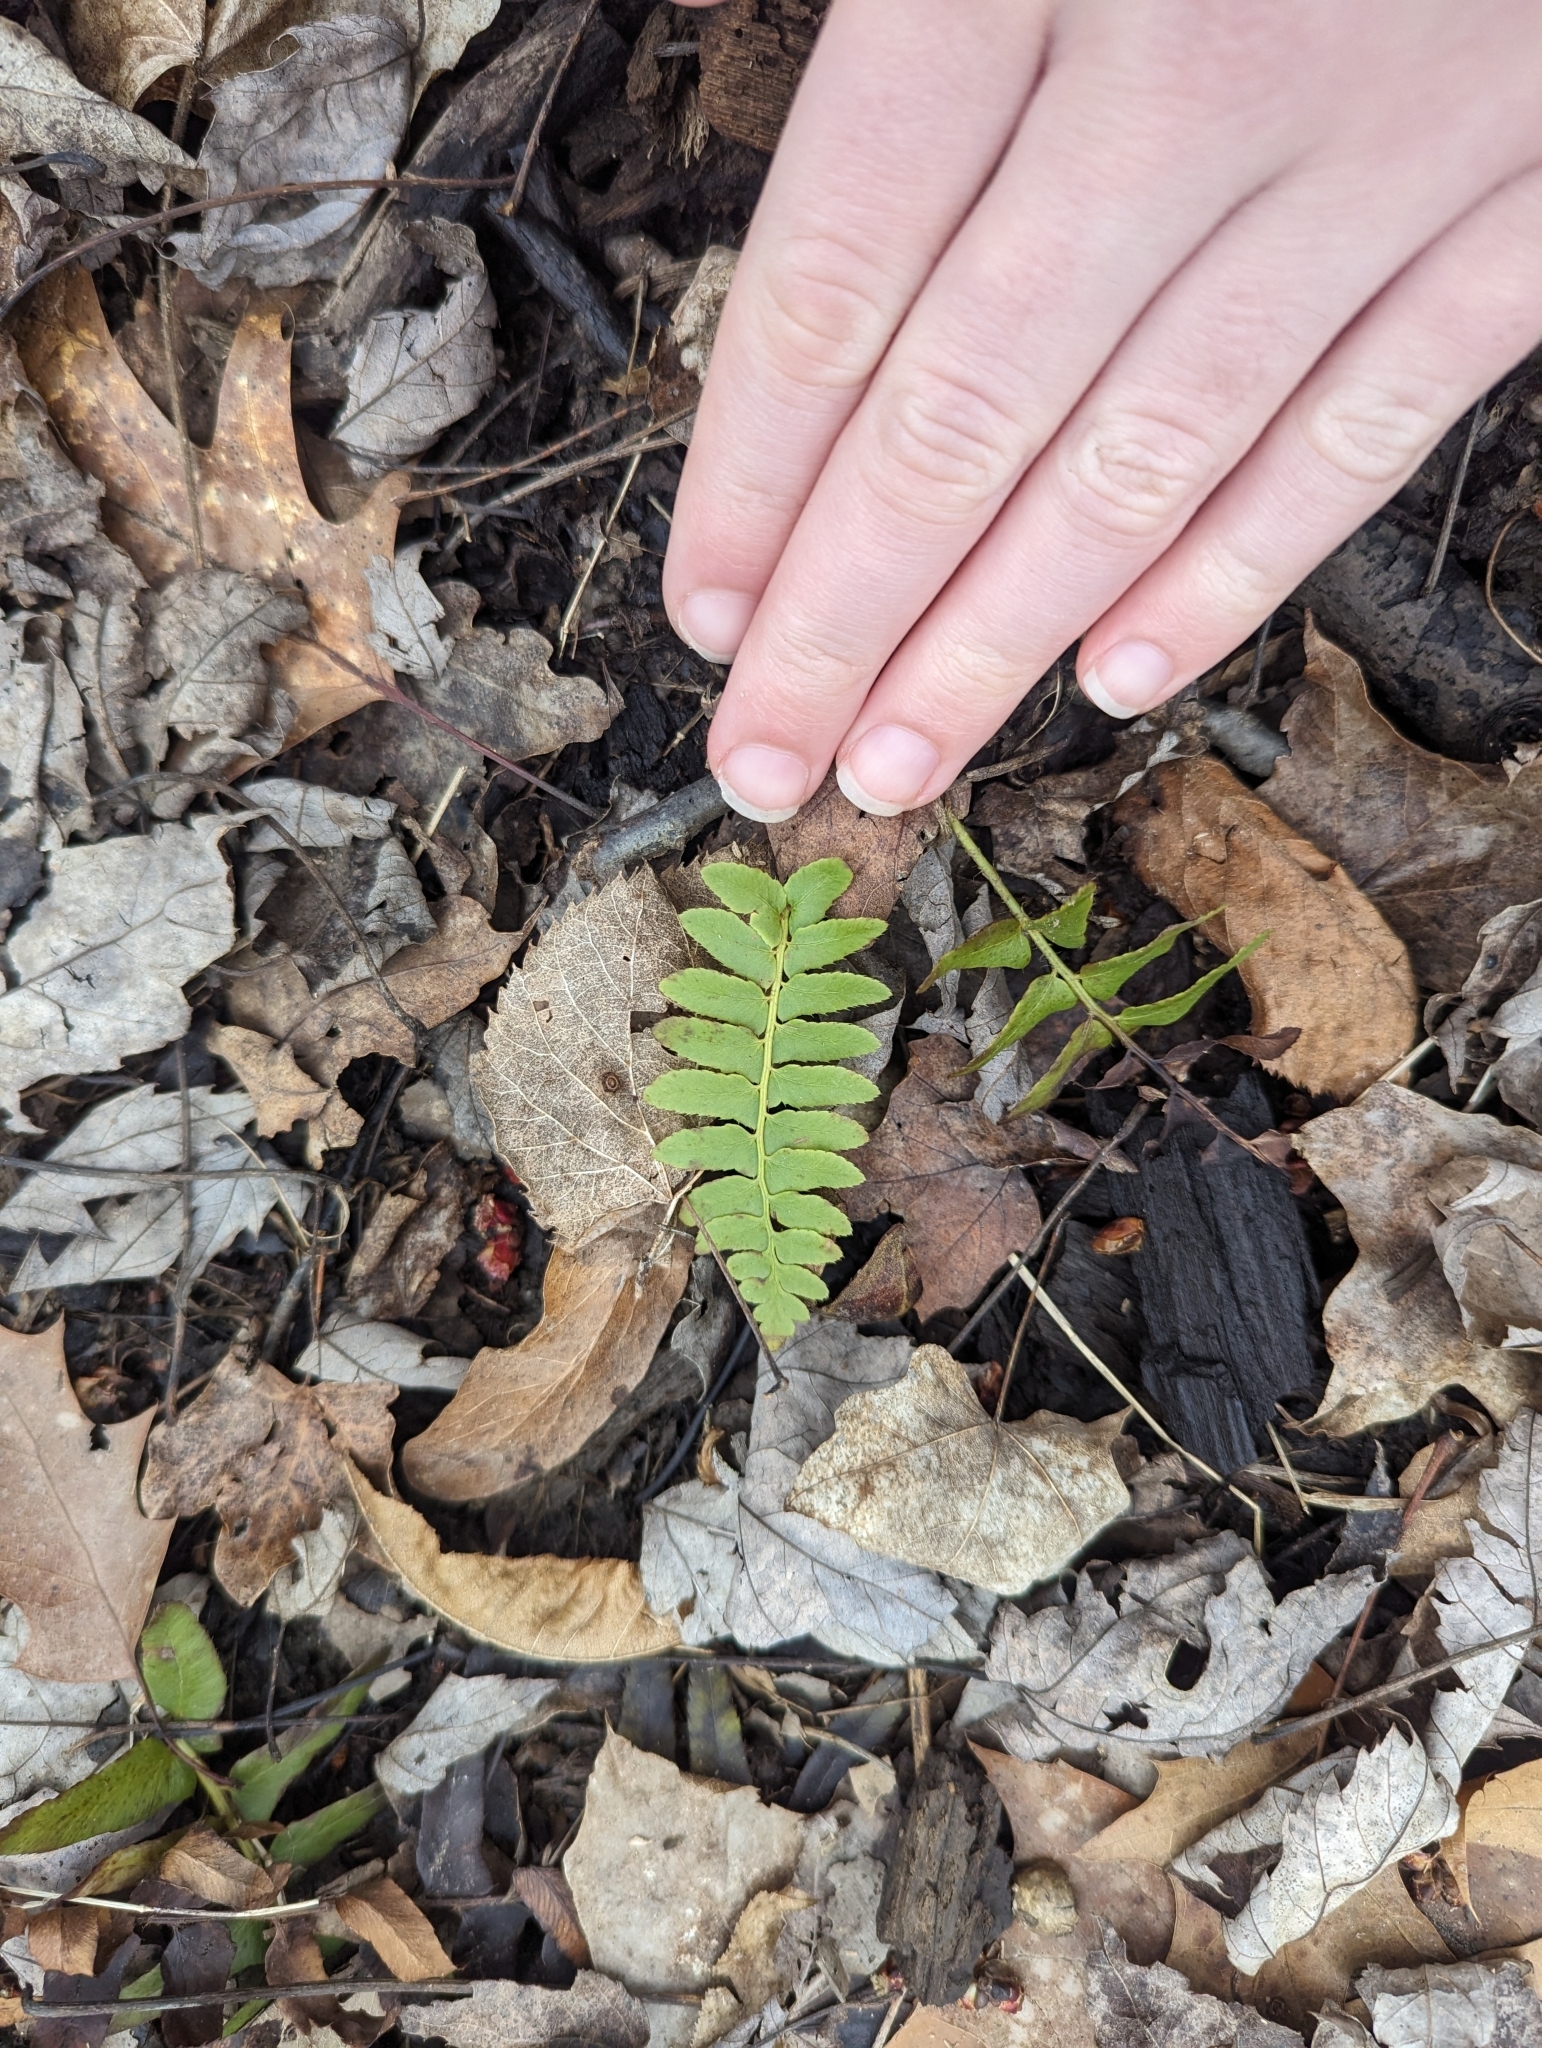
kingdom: Plantae
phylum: Tracheophyta
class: Polypodiopsida
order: Polypodiales
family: Dryopteridaceae
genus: Polystichum
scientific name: Polystichum acrostichoides
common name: Christmas fern
